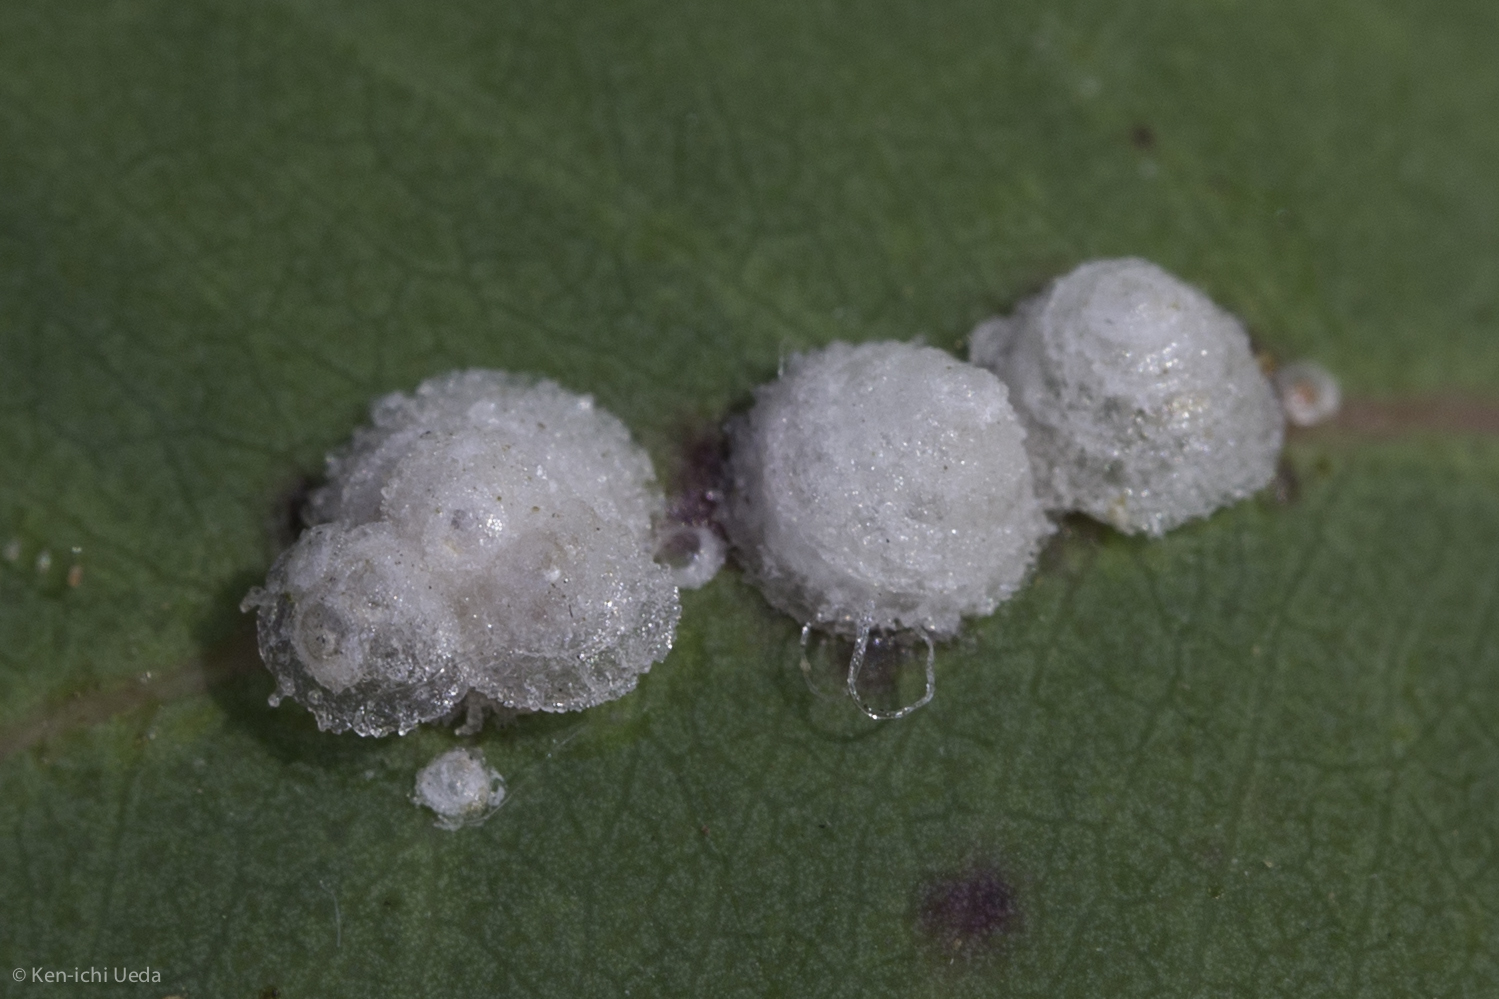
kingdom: Animalia
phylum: Arthropoda
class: Insecta
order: Hemiptera
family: Aphalaridae
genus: Glycaspis
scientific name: Glycaspis brimblecombei
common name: Red gum lerp psyllid
